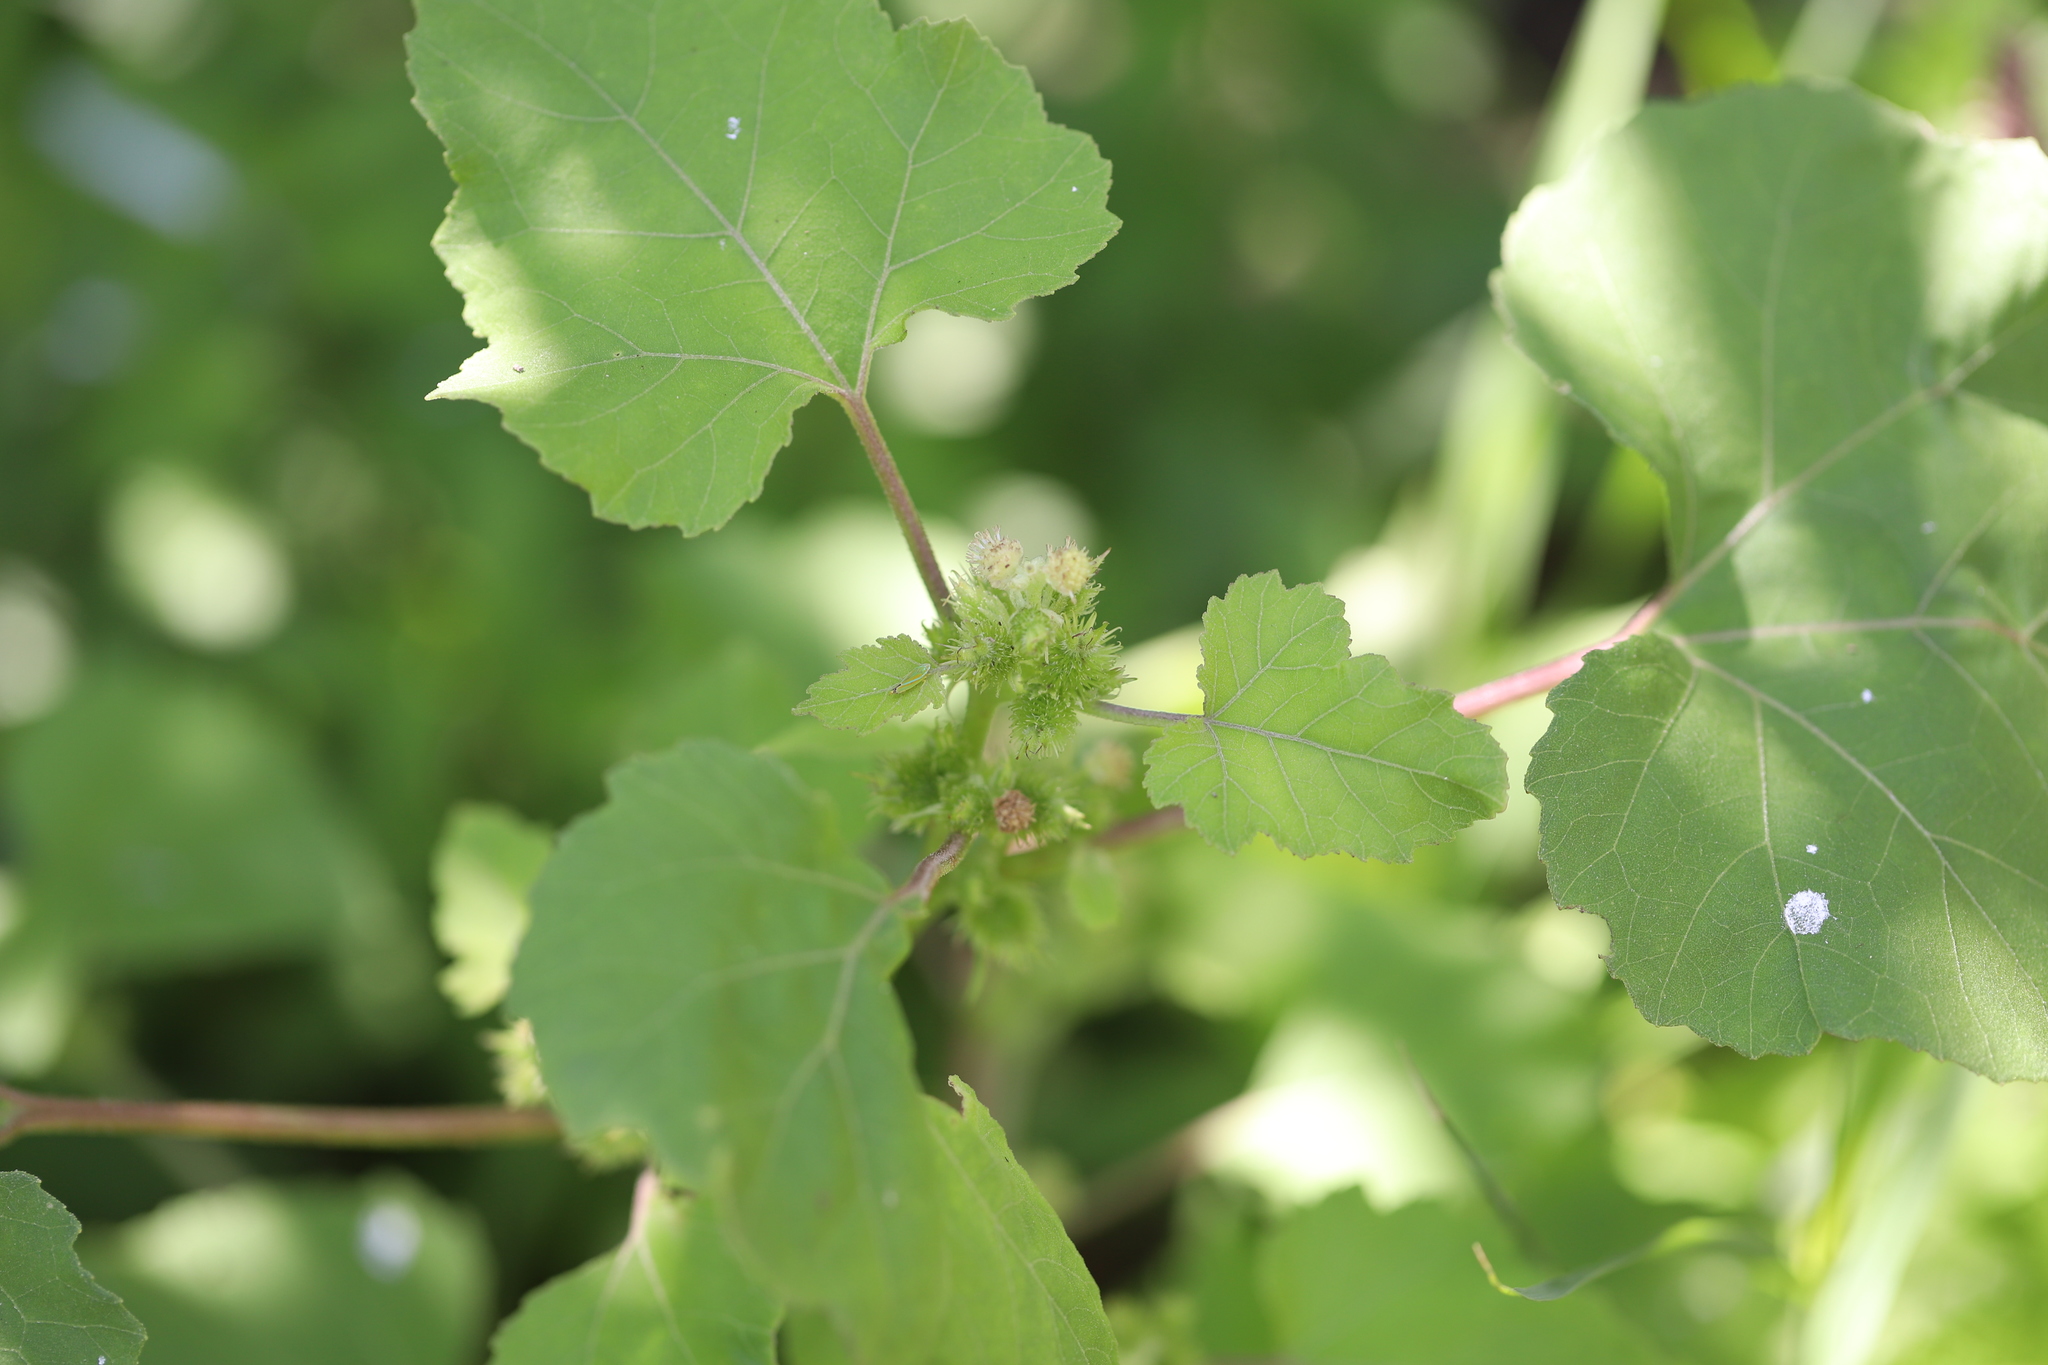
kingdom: Plantae
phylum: Tracheophyta
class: Magnoliopsida
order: Asterales
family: Asteraceae
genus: Xanthium
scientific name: Xanthium strumarium
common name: Rough cocklebur
